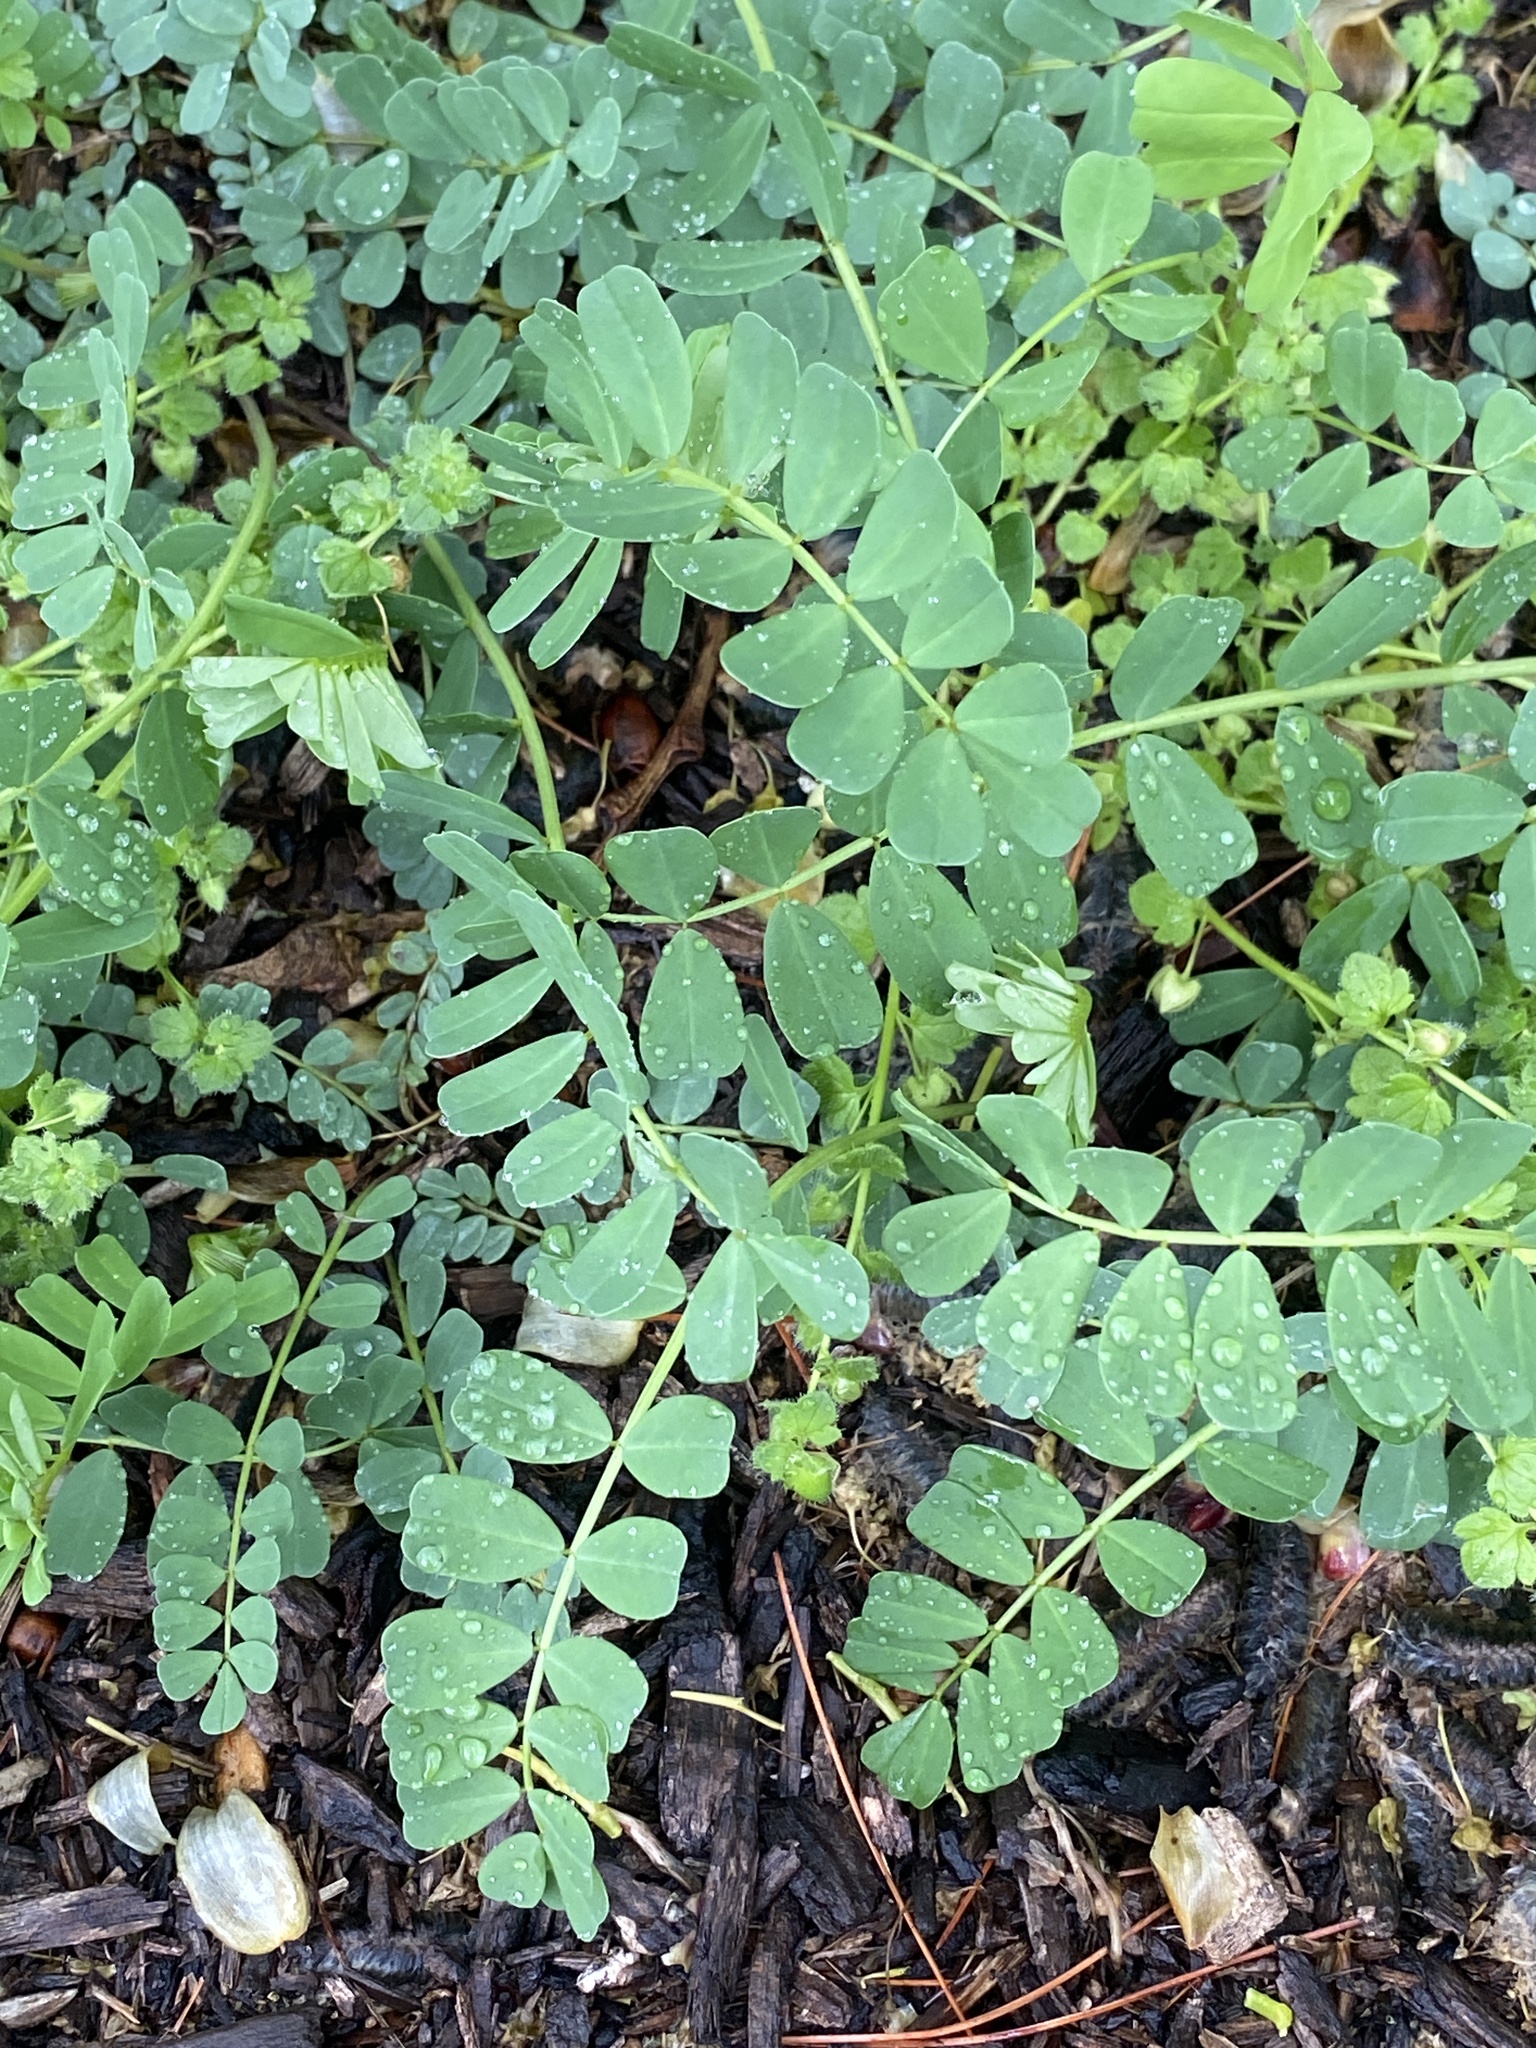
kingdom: Plantae
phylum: Tracheophyta
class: Magnoliopsida
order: Fabales
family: Fabaceae
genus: Coronilla
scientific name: Coronilla varia
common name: Crownvetch
